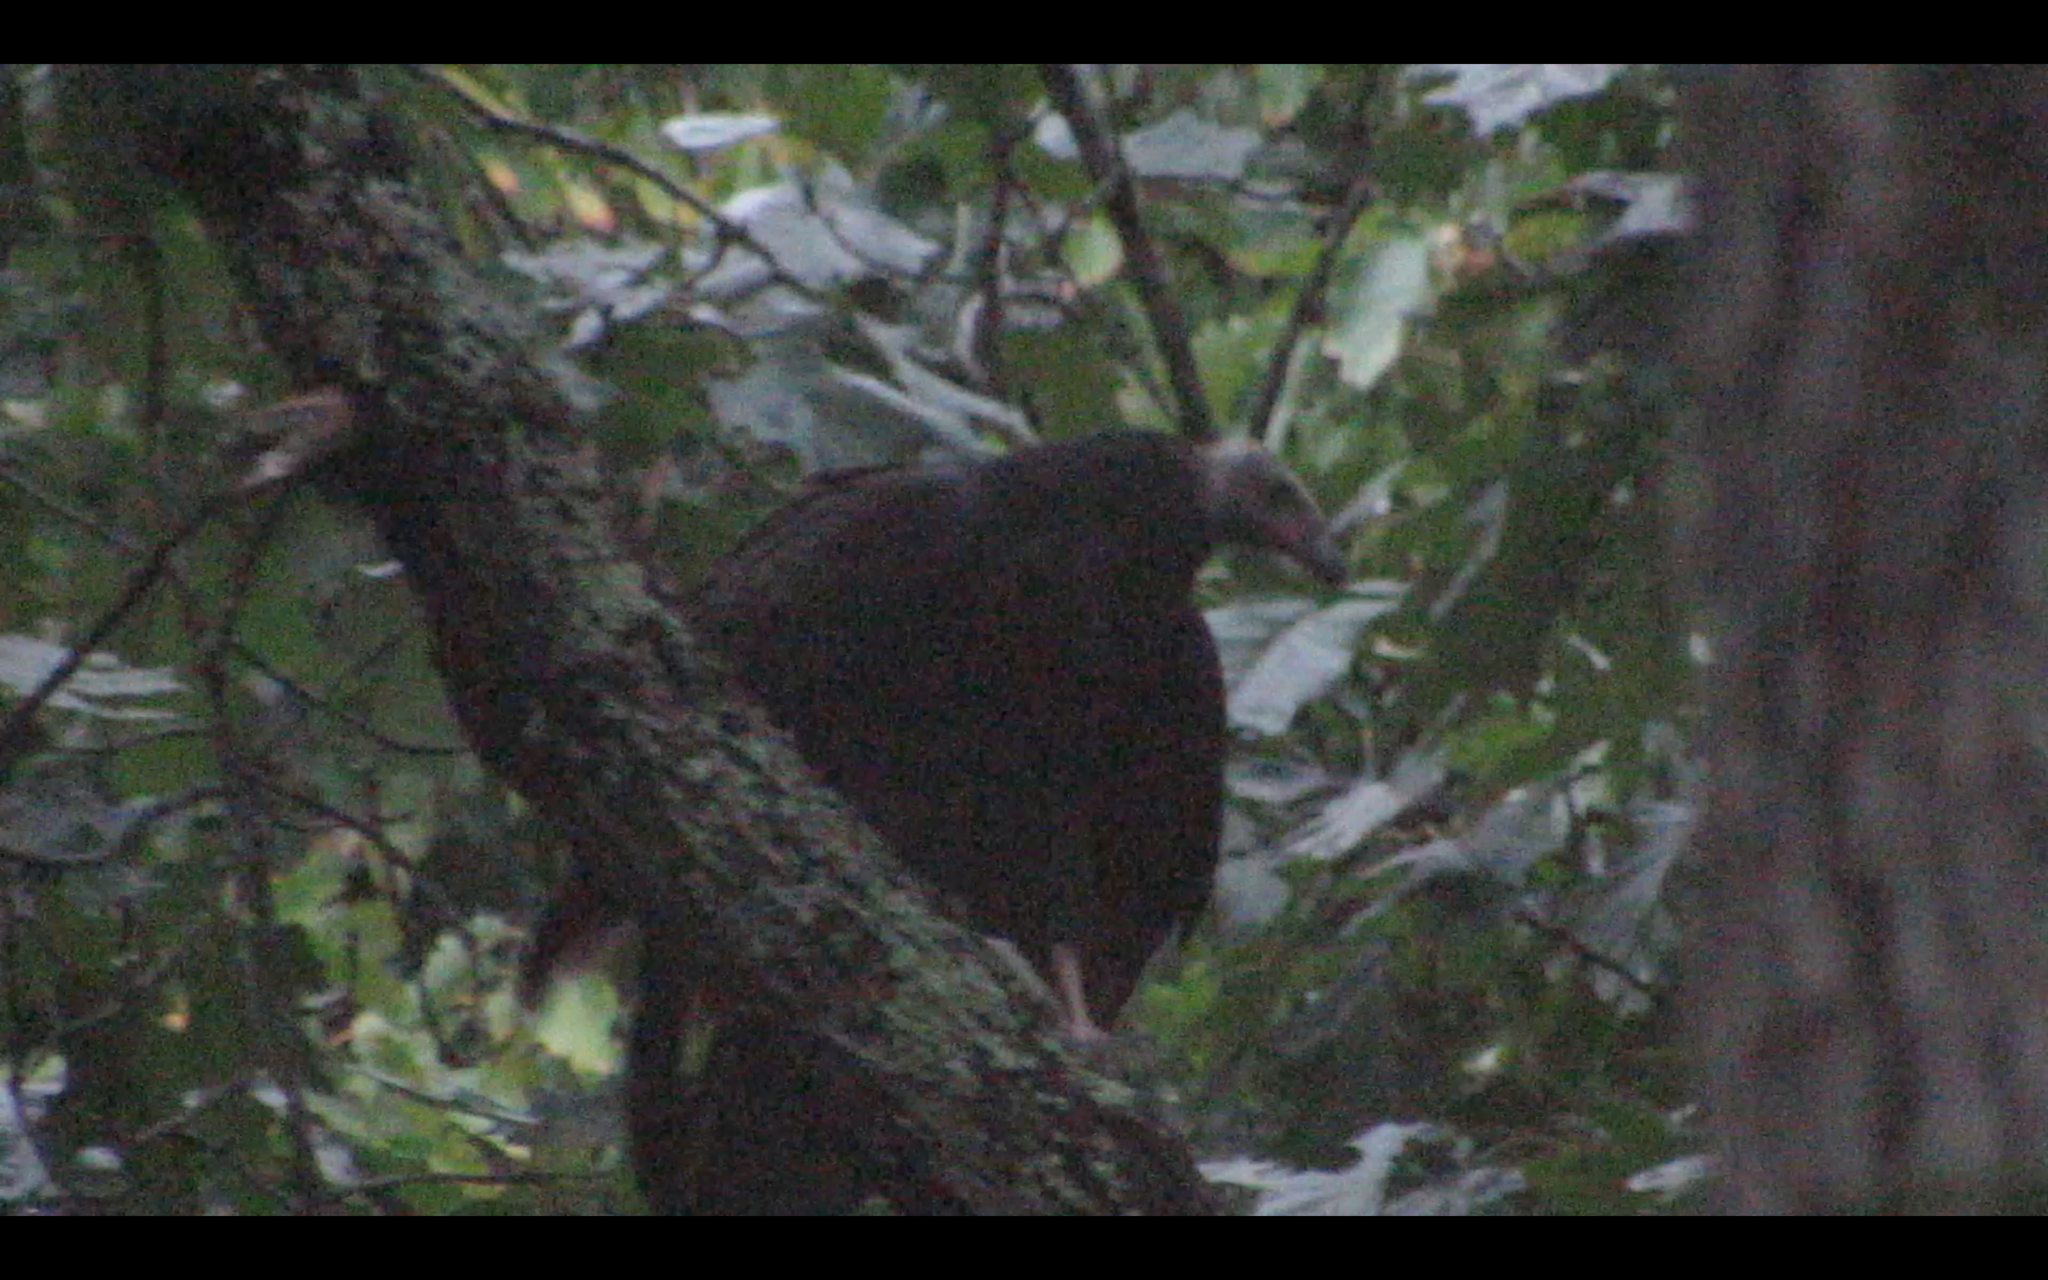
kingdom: Animalia
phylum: Chordata
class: Aves
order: Accipitriformes
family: Cathartidae
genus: Cathartes
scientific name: Cathartes aura
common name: Turkey vulture
